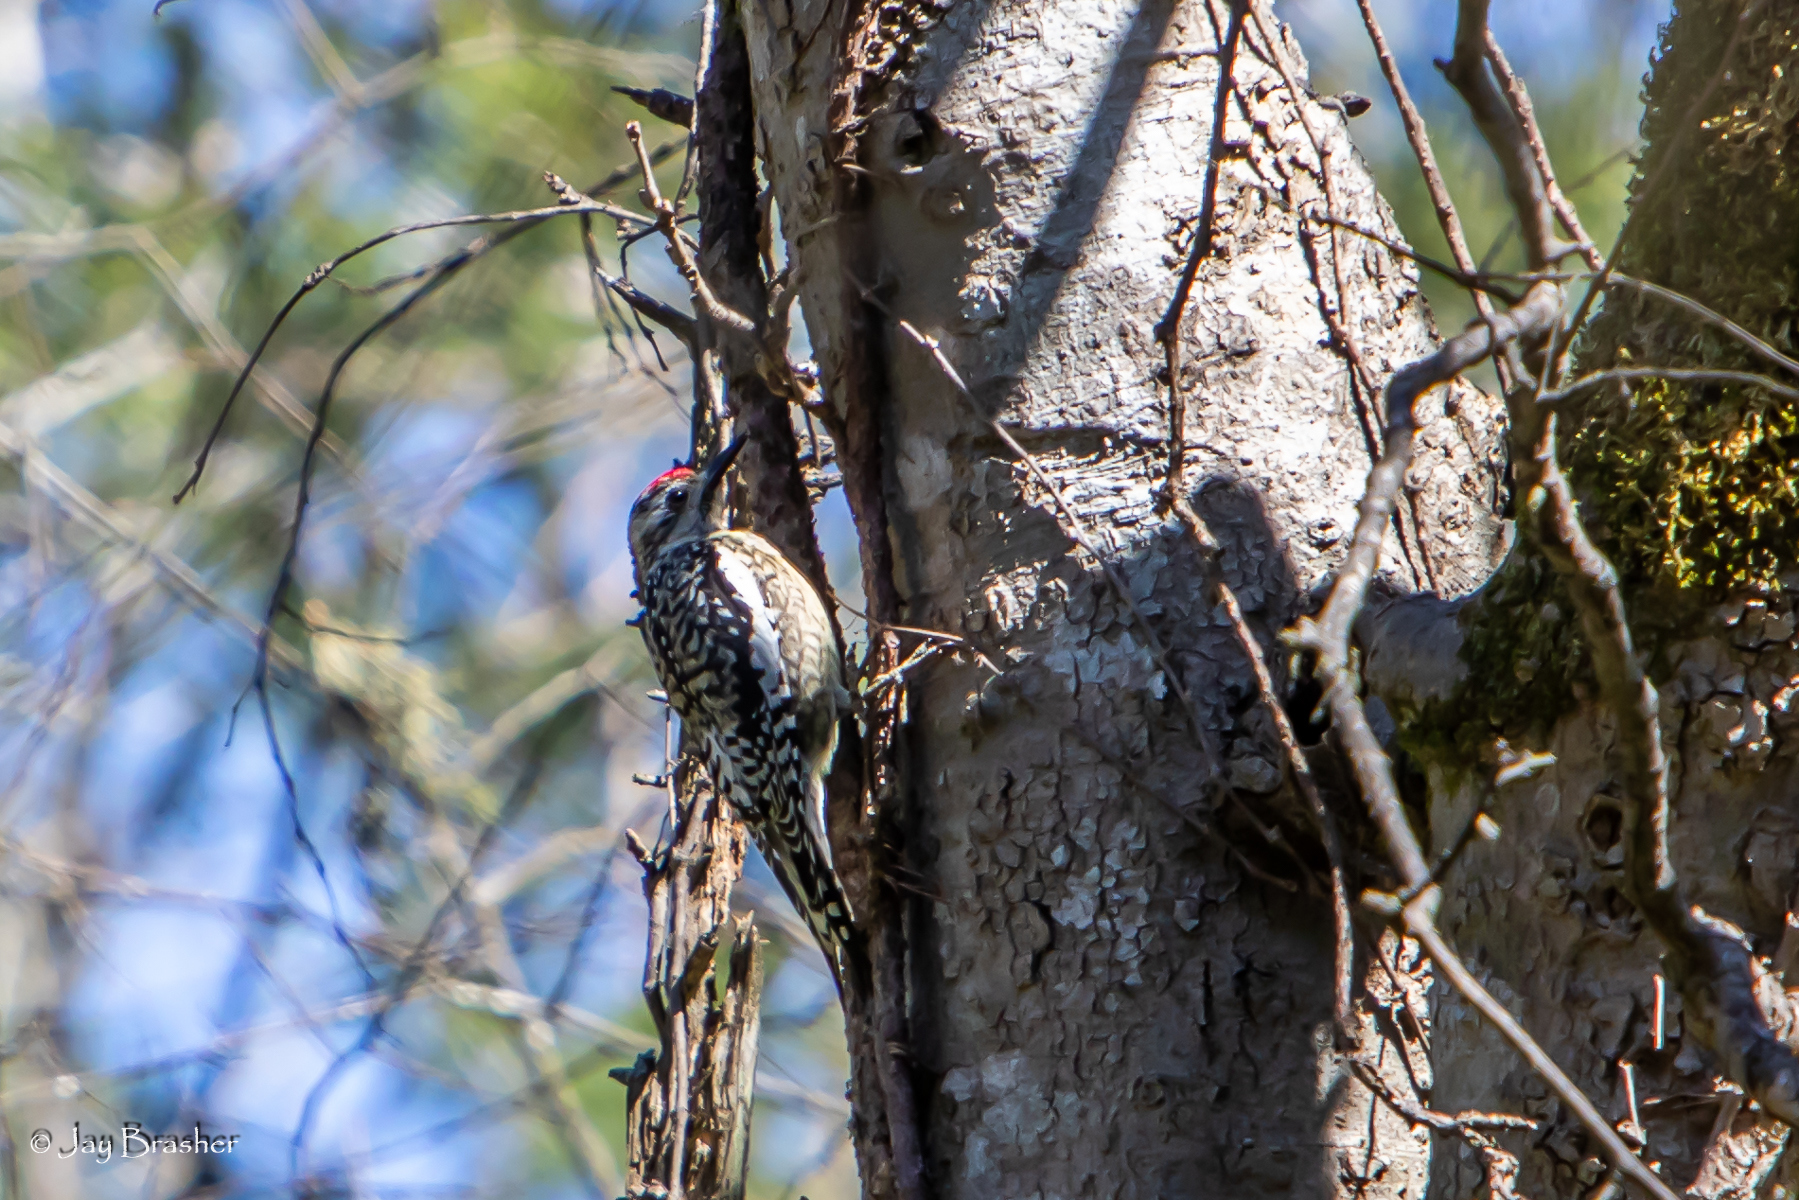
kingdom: Animalia
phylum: Chordata
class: Aves
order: Piciformes
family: Picidae
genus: Sphyrapicus
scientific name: Sphyrapicus varius
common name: Yellow-bellied sapsucker
